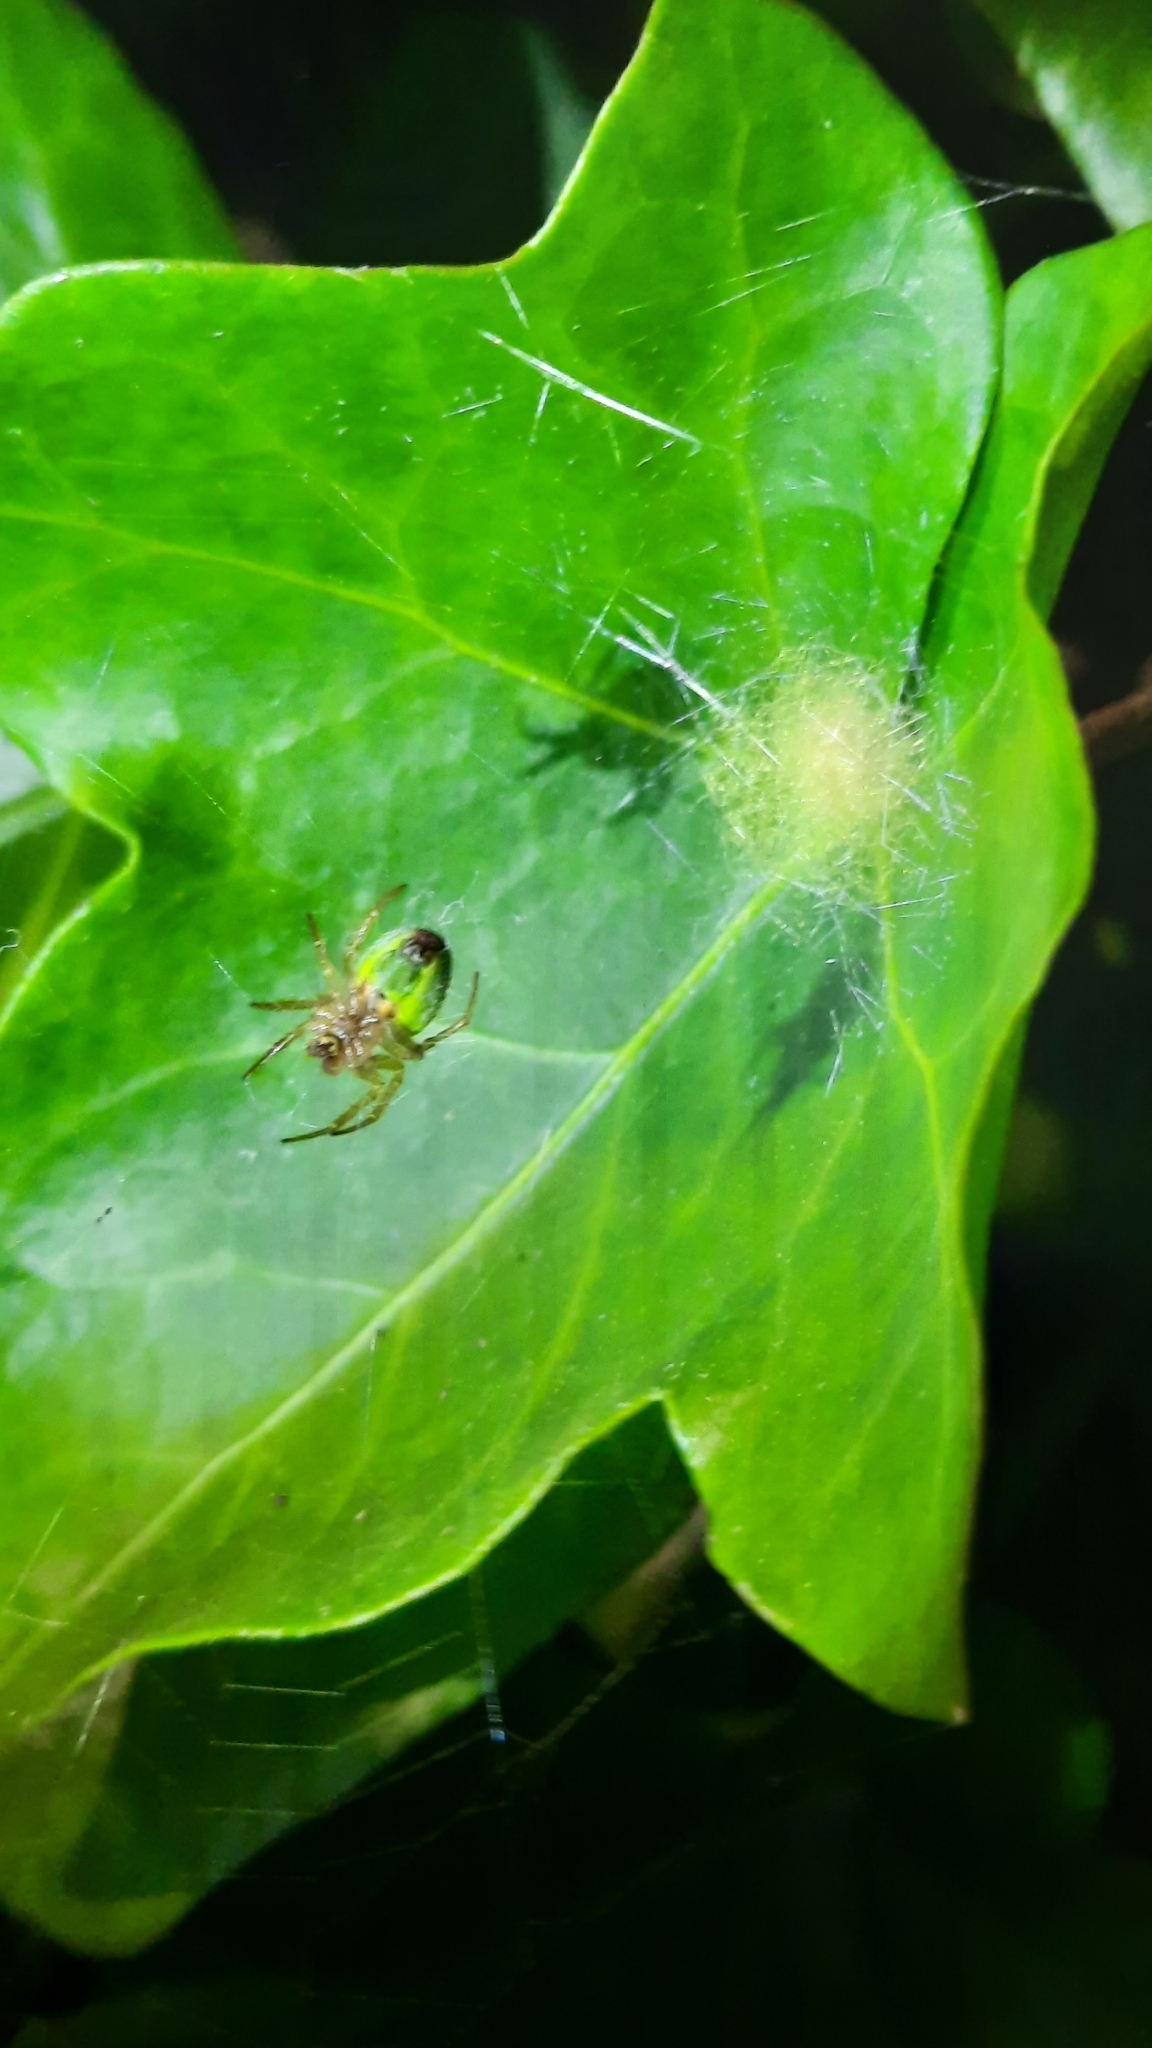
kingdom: Animalia
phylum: Arthropoda
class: Arachnida
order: Araneae
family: Araneidae
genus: Araniella
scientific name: Araniella
